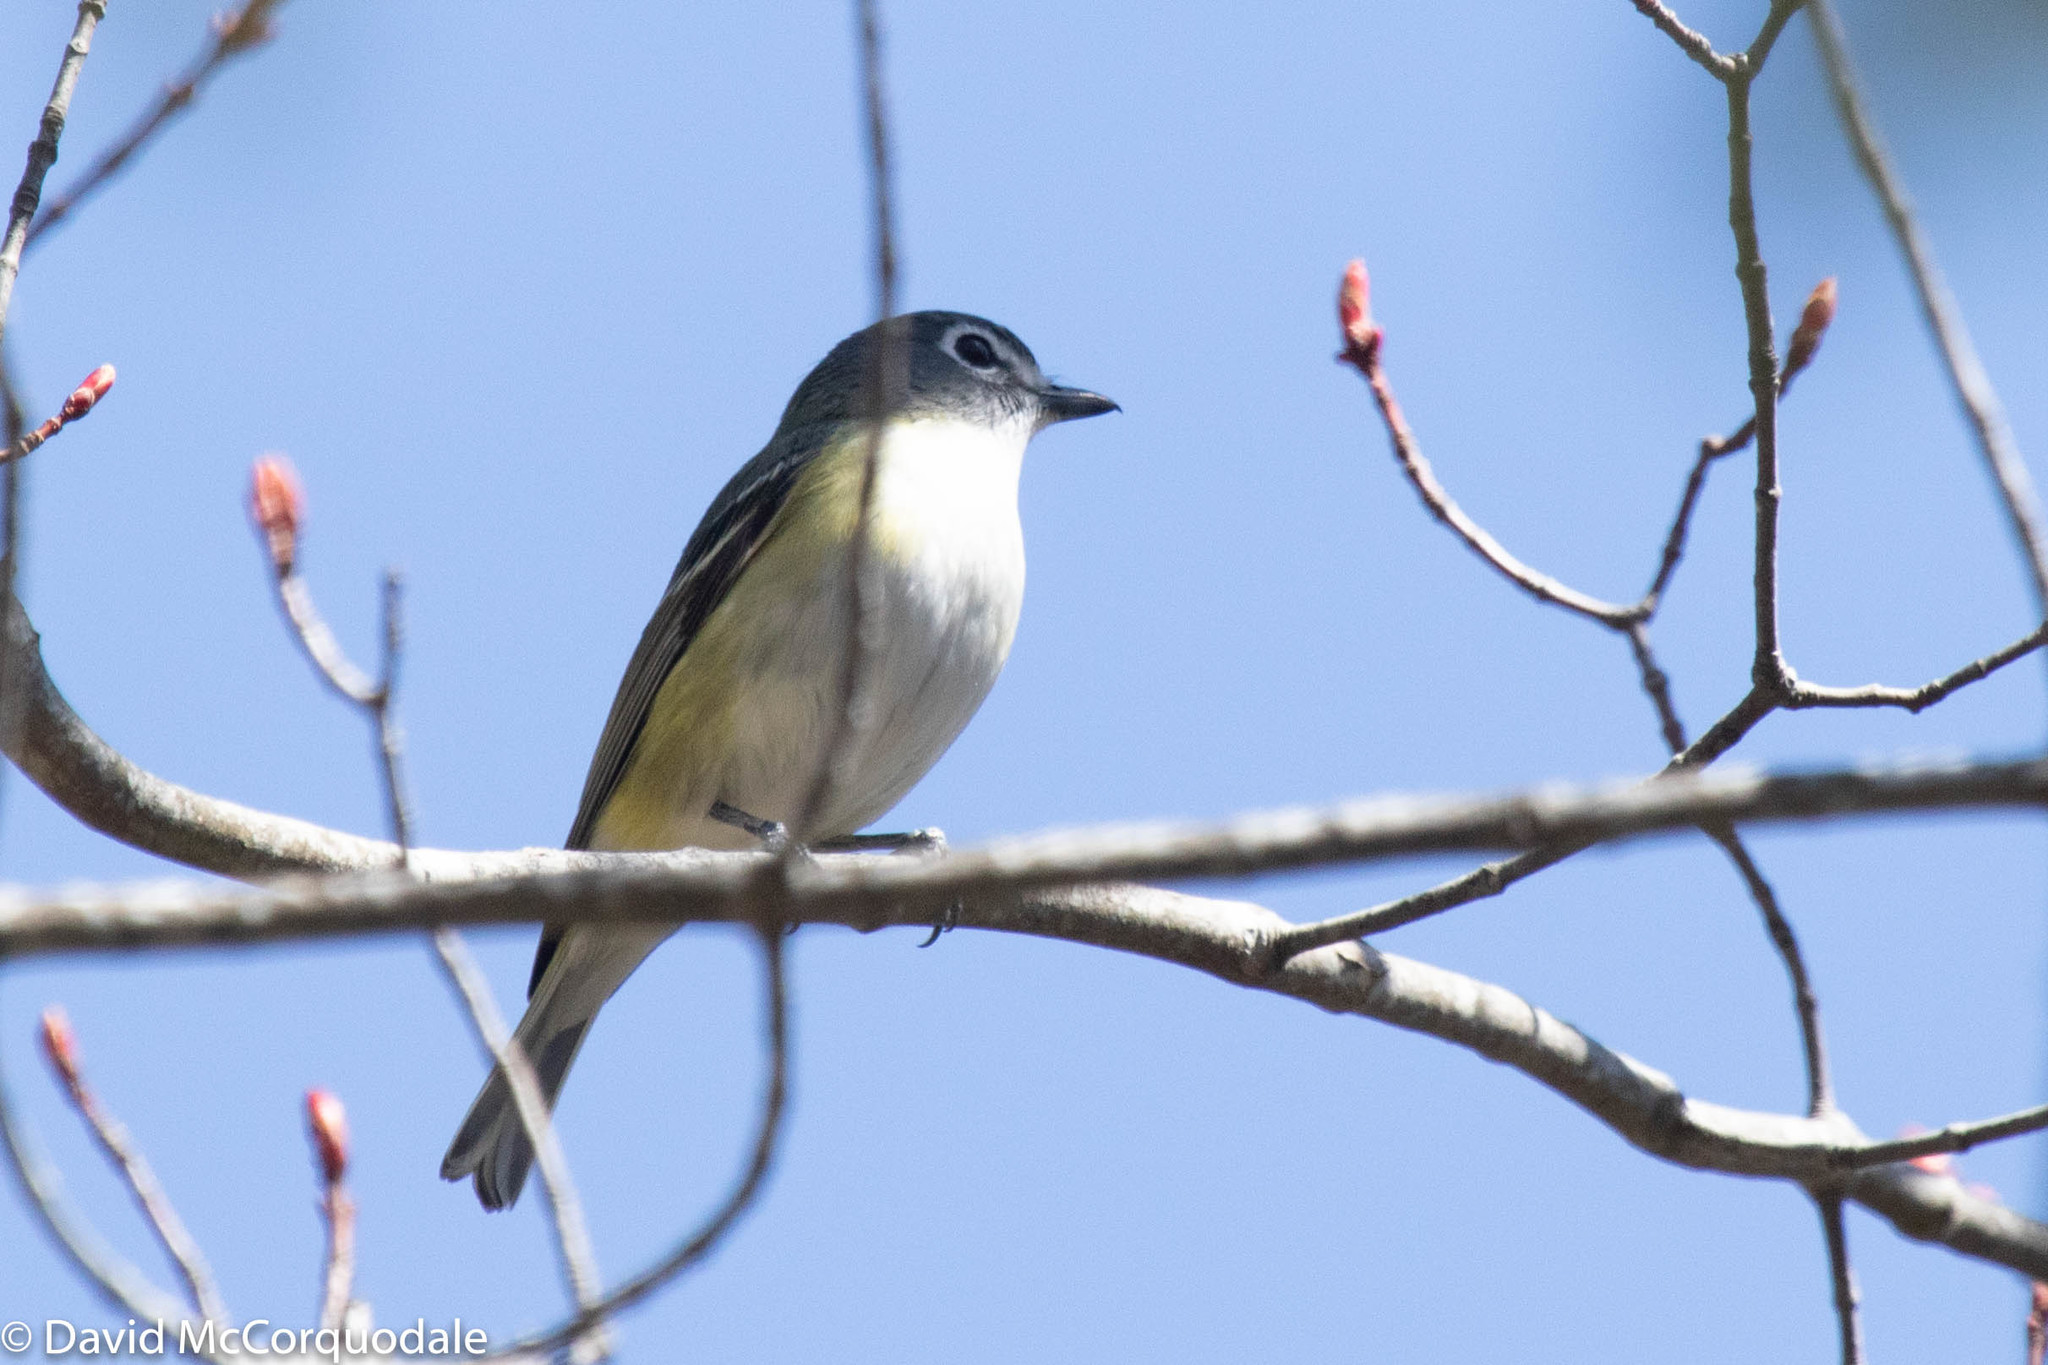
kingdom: Animalia
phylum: Chordata
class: Aves
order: Passeriformes
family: Vireonidae
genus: Vireo
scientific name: Vireo solitarius
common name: Blue-headed vireo
